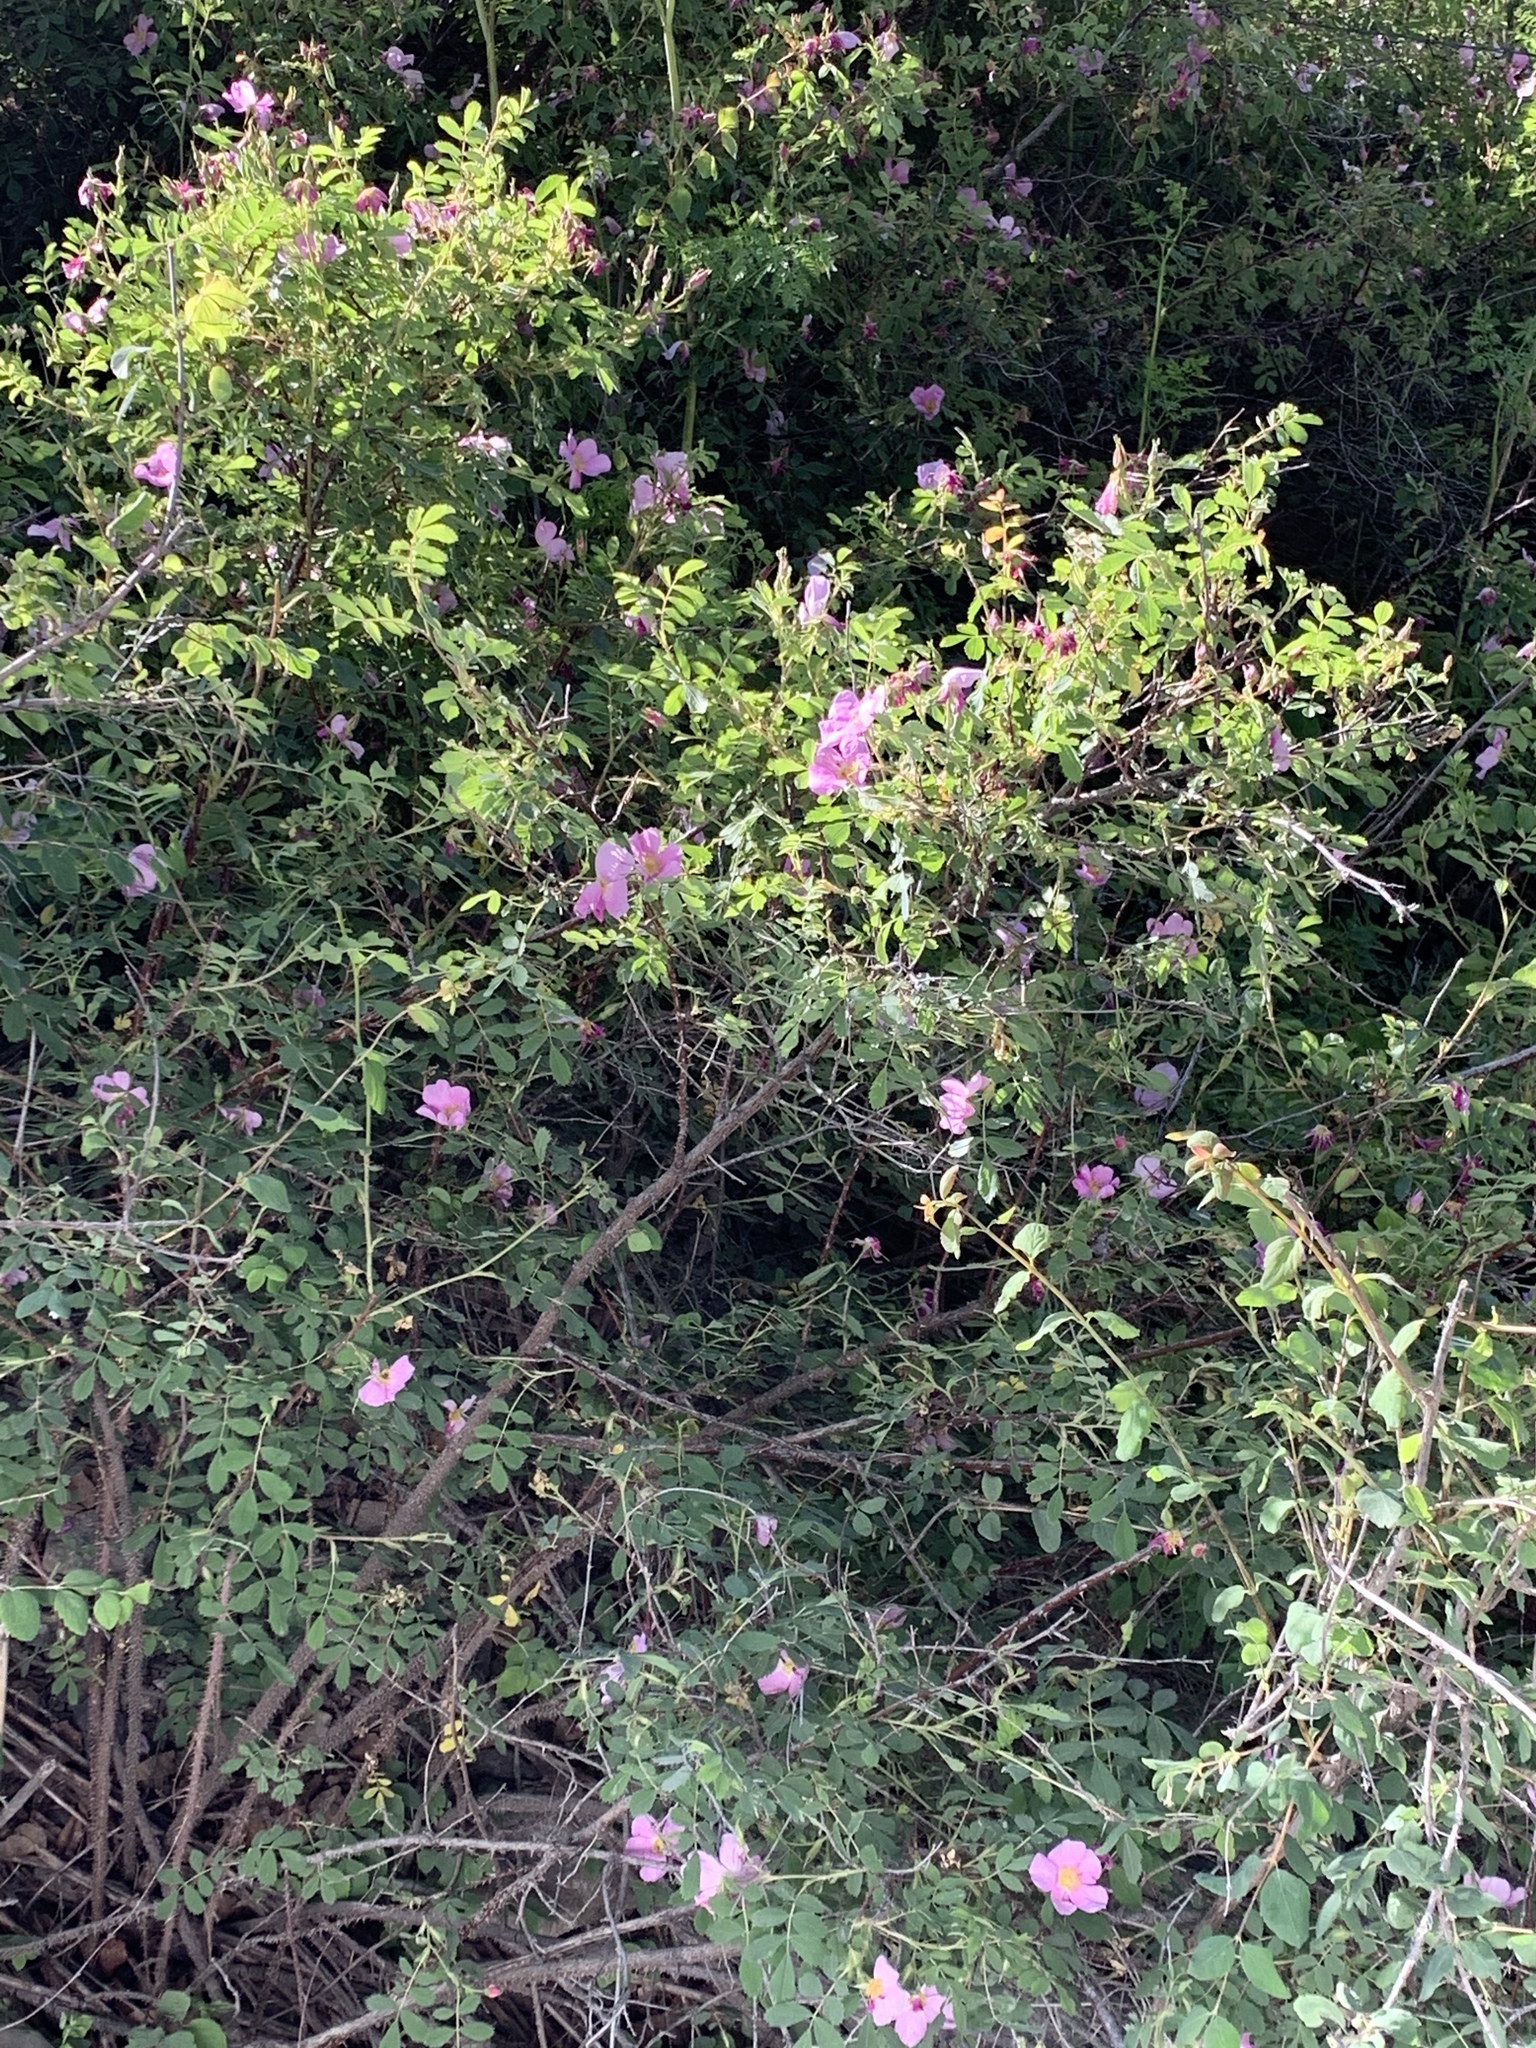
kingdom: Plantae
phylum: Tracheophyta
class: Magnoliopsida
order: Rosales
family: Rosaceae
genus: Rosa
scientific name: Rosa woodsii
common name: Woods's rose
